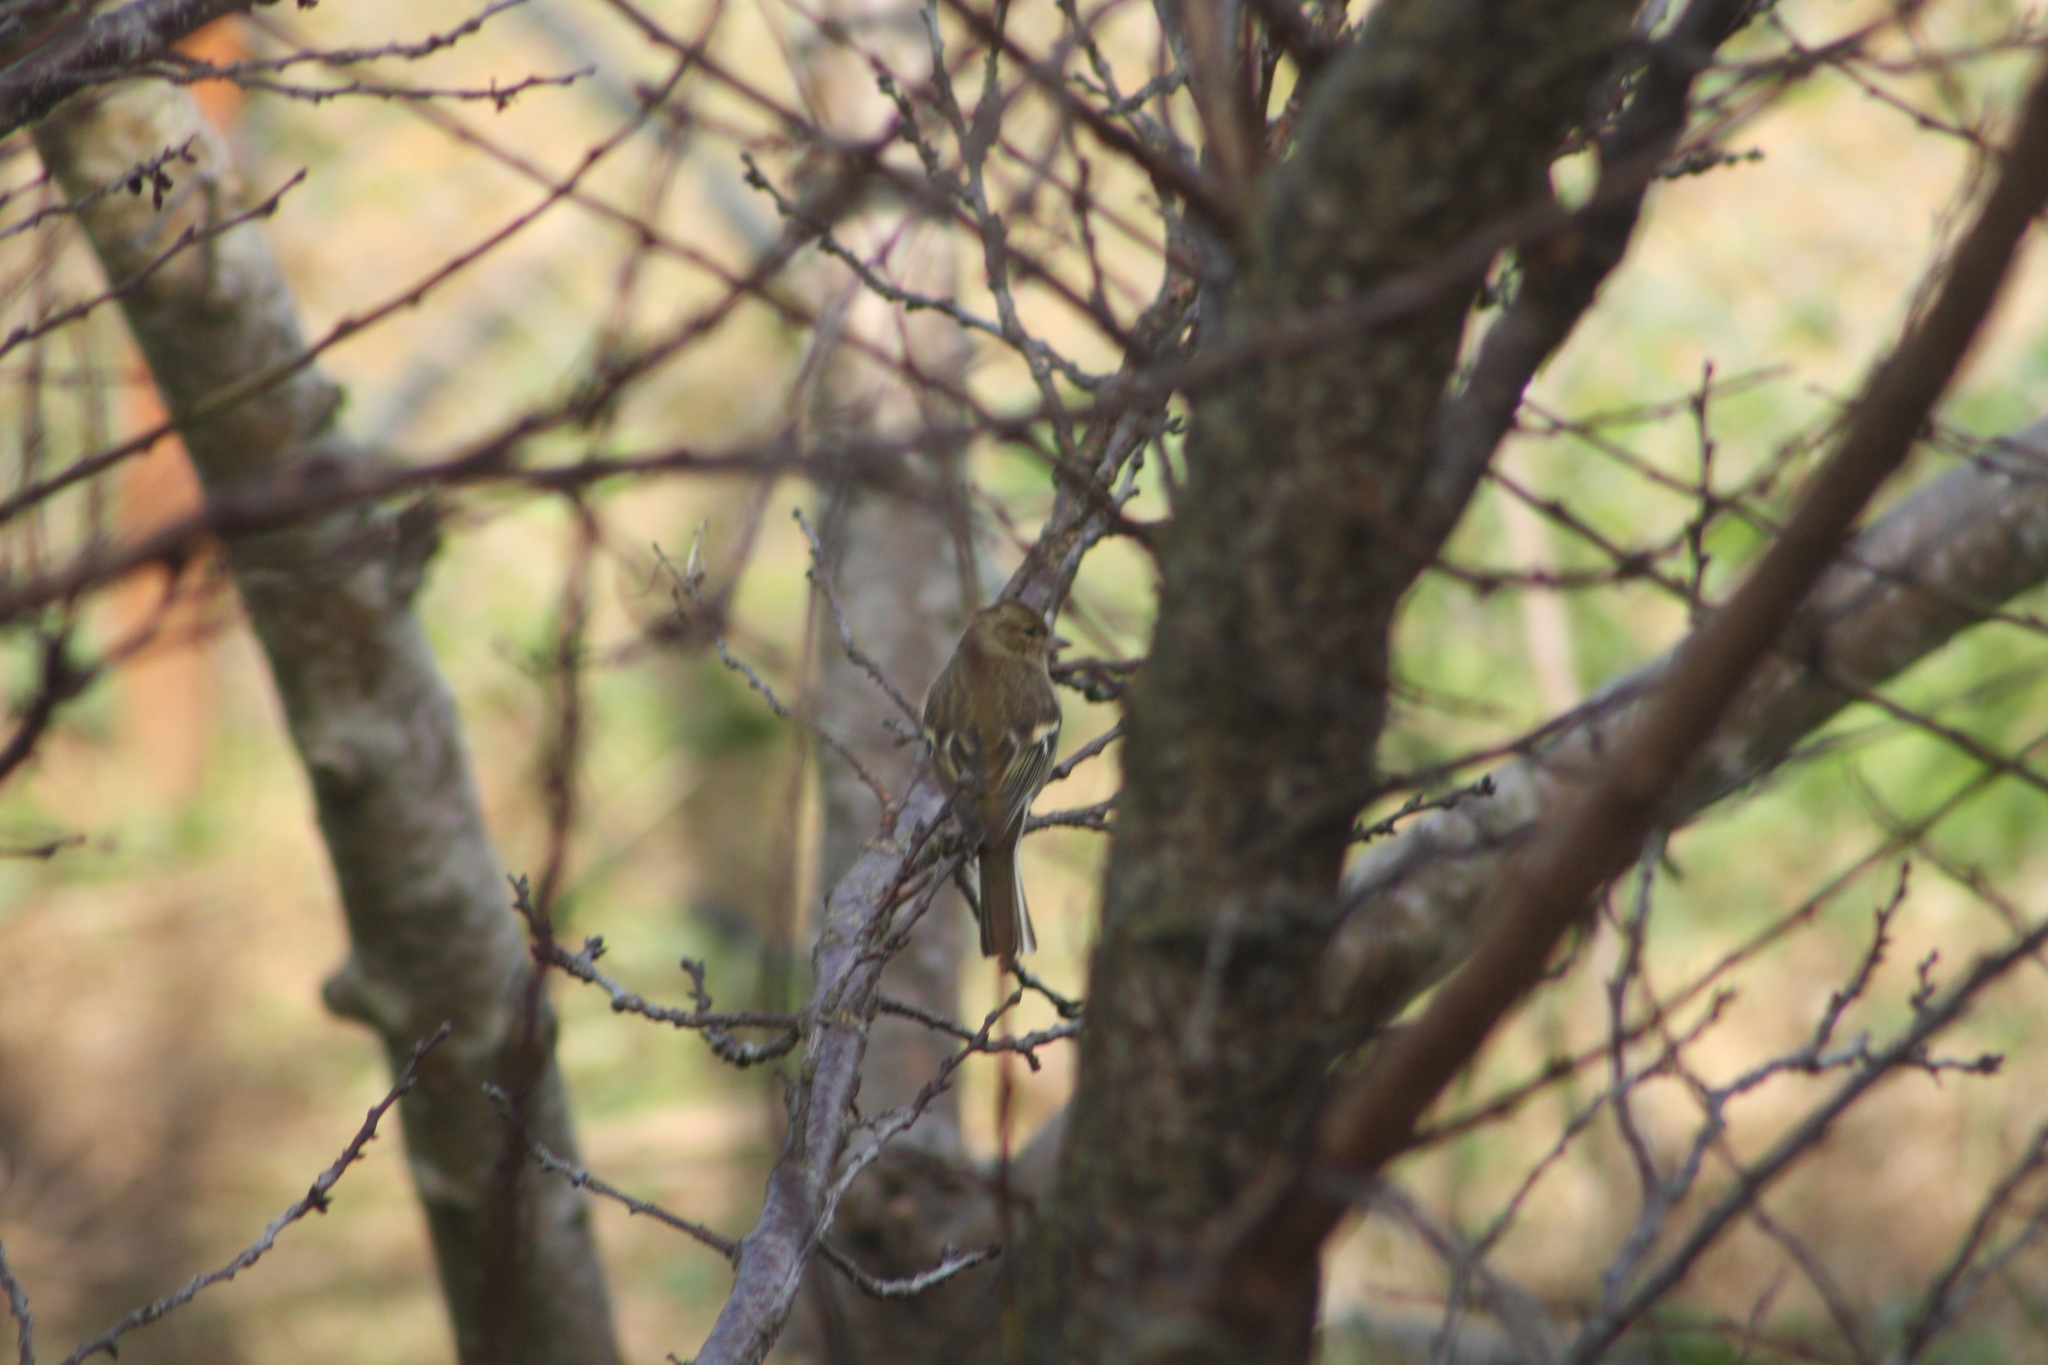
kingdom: Animalia
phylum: Chordata
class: Aves
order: Passeriformes
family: Fringillidae
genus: Fringilla
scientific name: Fringilla coelebs
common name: Common chaffinch
